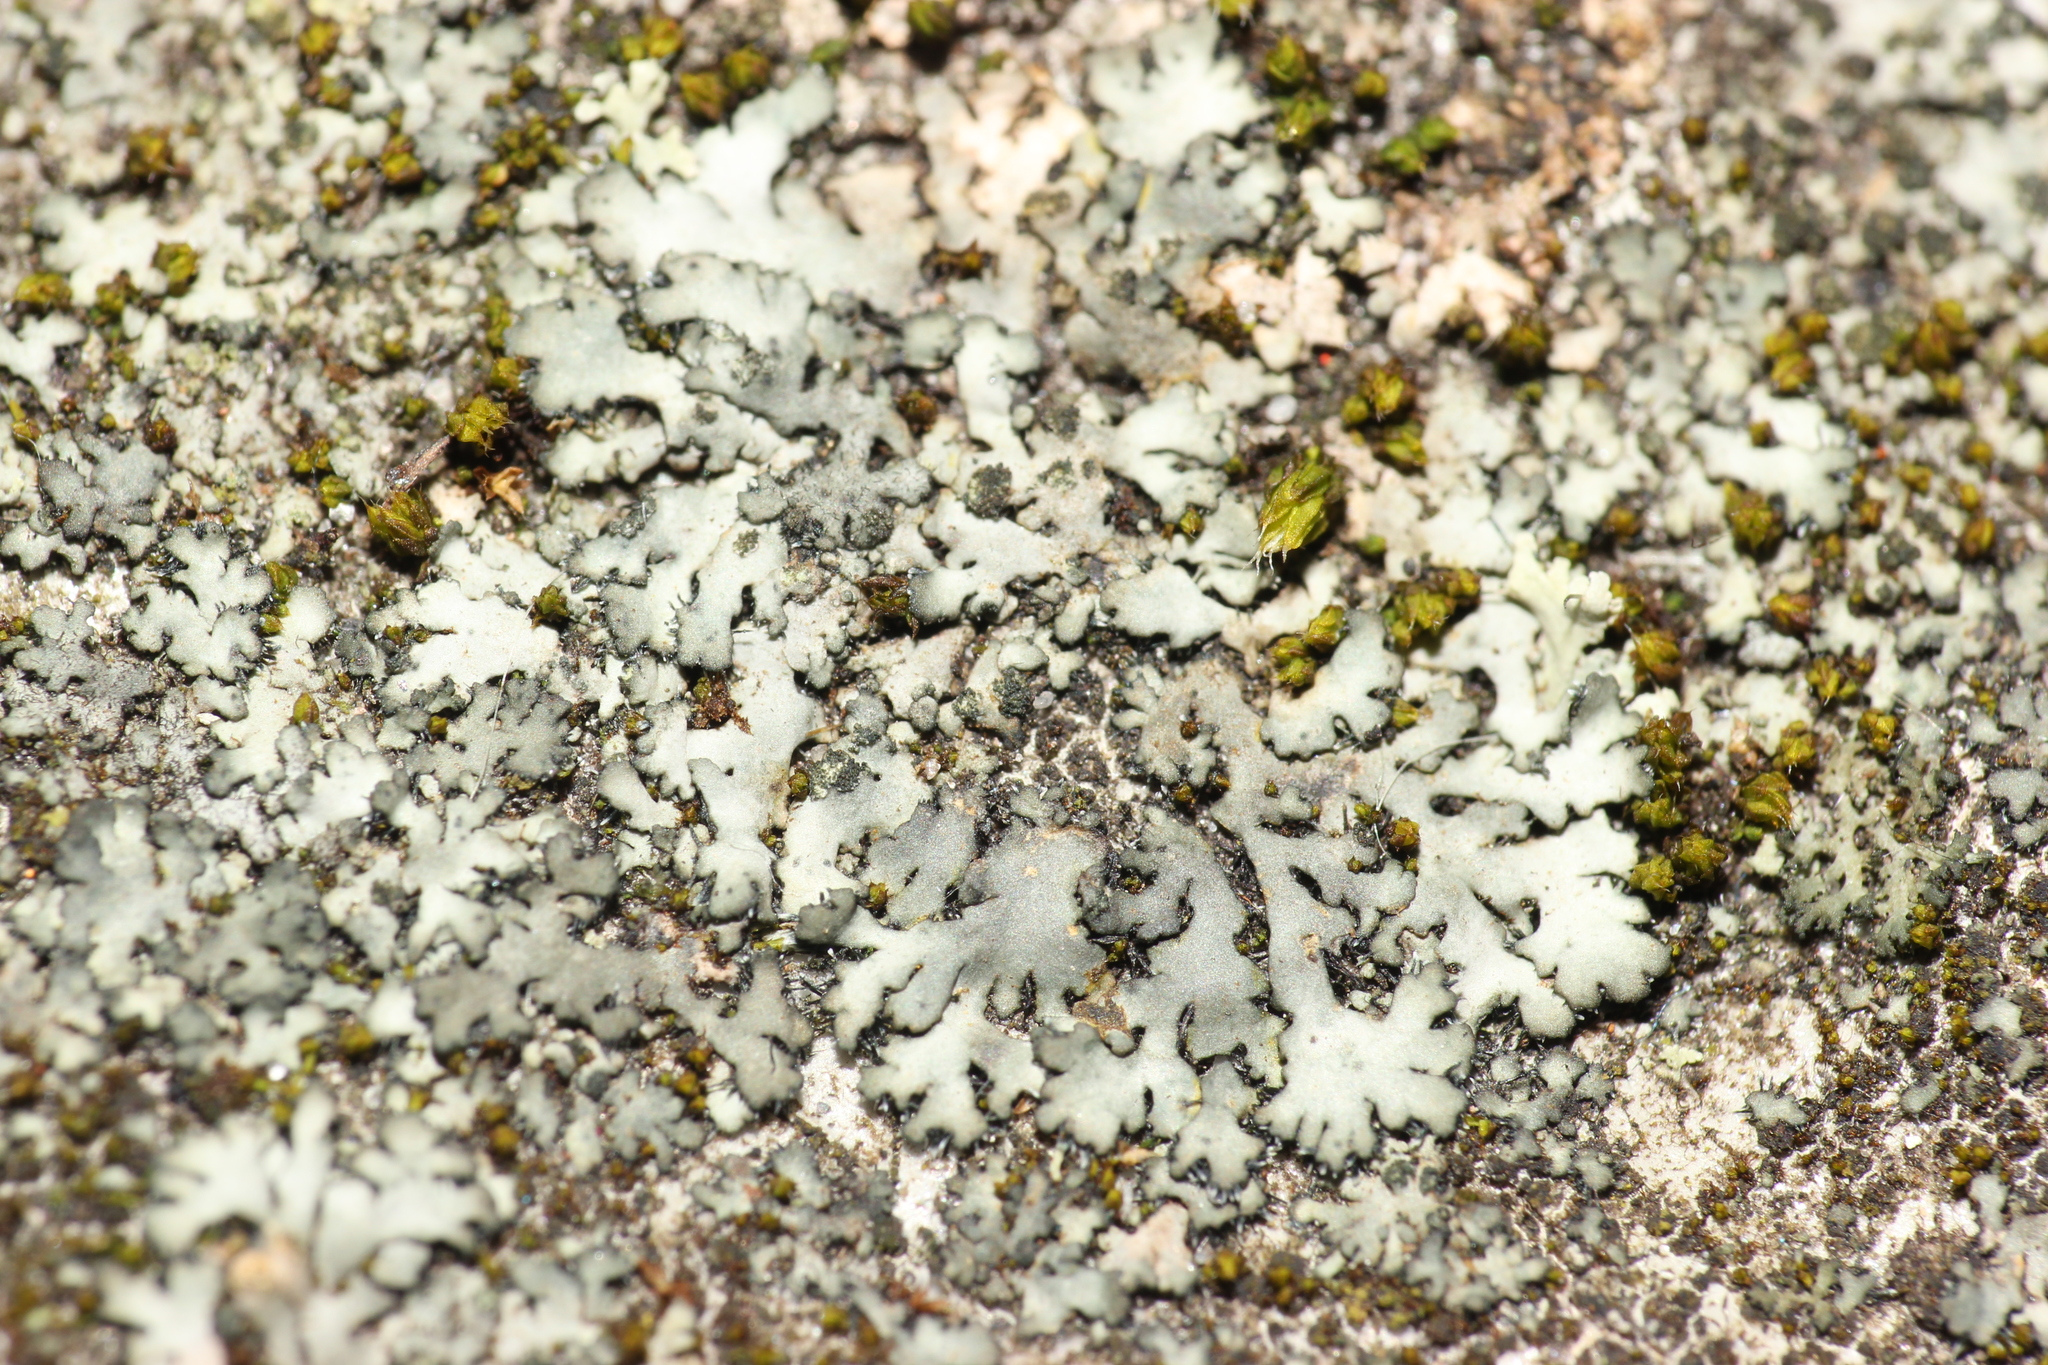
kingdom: Fungi
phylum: Ascomycota
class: Lecanoromycetes
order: Caliciales
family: Physciaceae
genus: Phaeophyscia
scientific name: Phaeophyscia orbicularis
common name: Mealy shadow lichen
